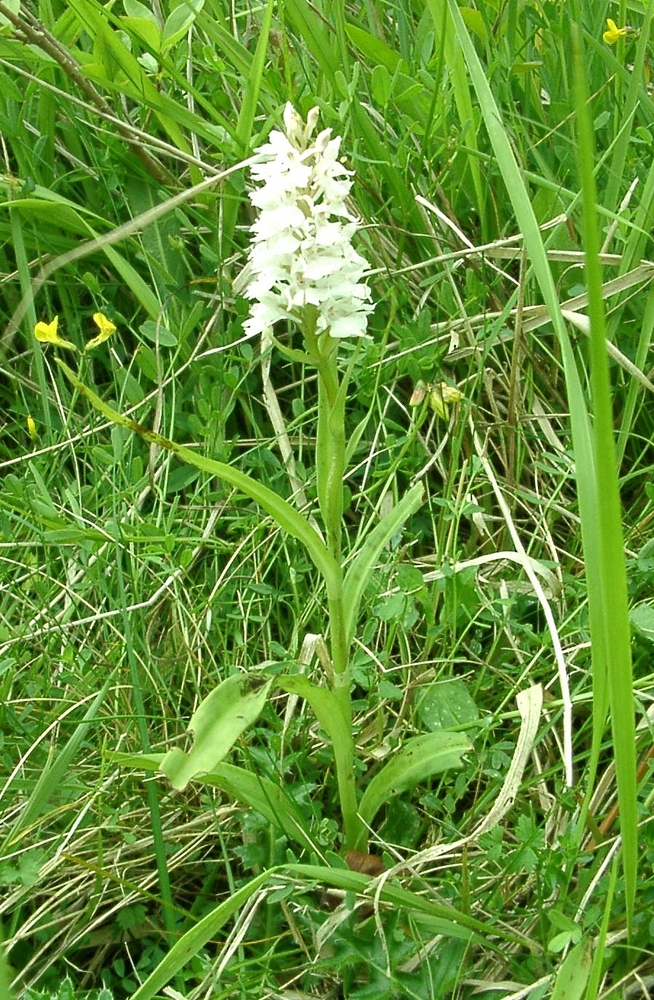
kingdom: Plantae
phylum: Tracheophyta
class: Liliopsida
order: Asparagales
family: Orchidaceae
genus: Dactylorhiza
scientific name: Dactylorhiza maculata
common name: Heath spotted-orchid
